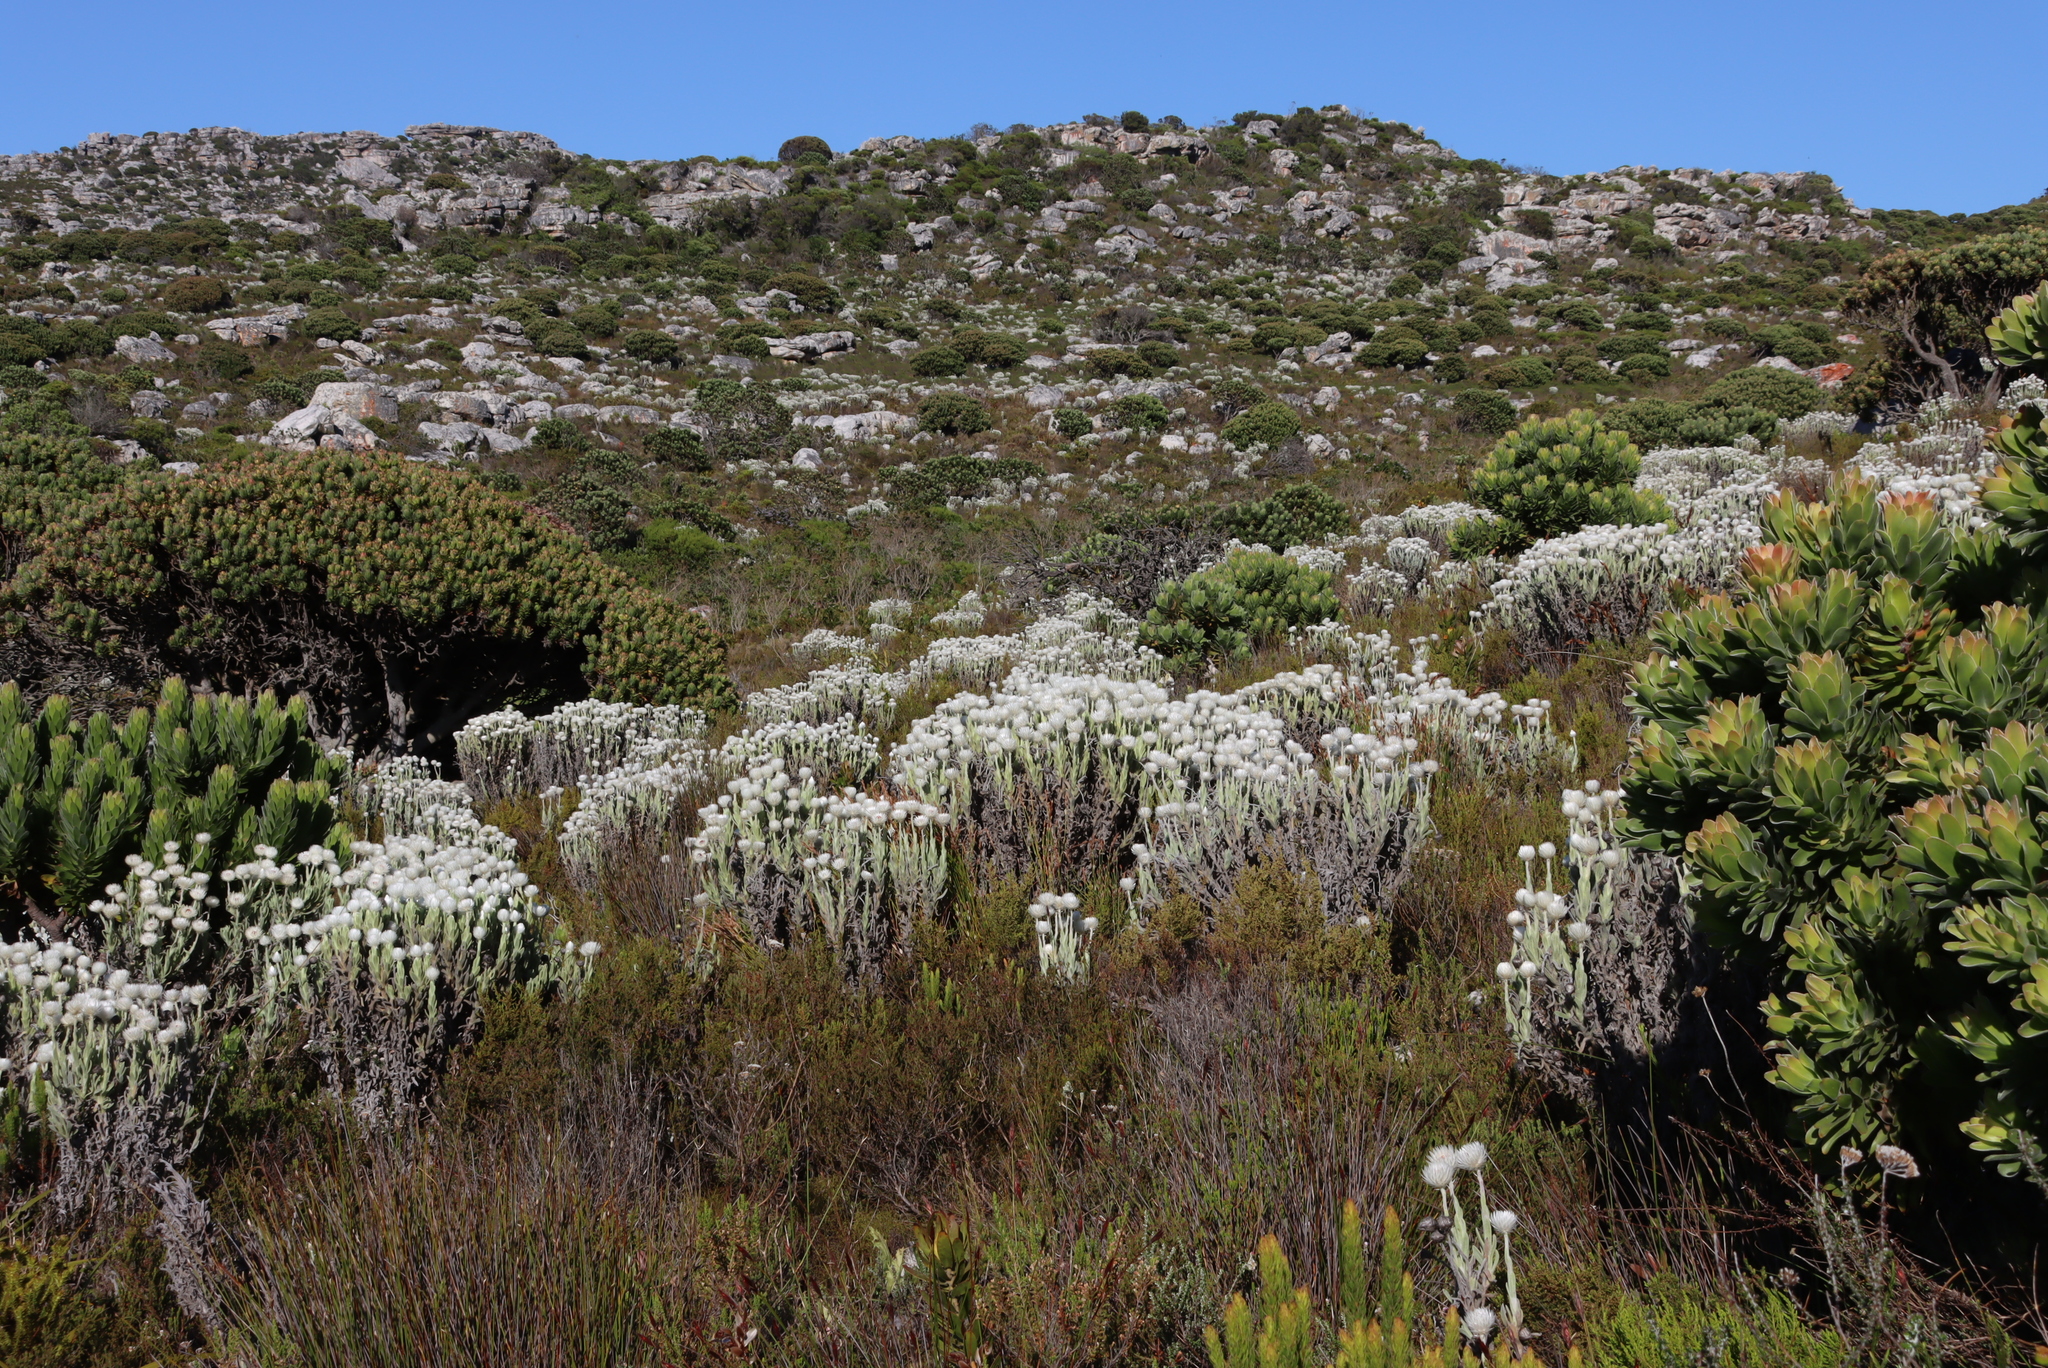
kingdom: Plantae
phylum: Tracheophyta
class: Magnoliopsida
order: Asterales
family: Asteraceae
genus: Syncarpha
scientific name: Syncarpha vestita
